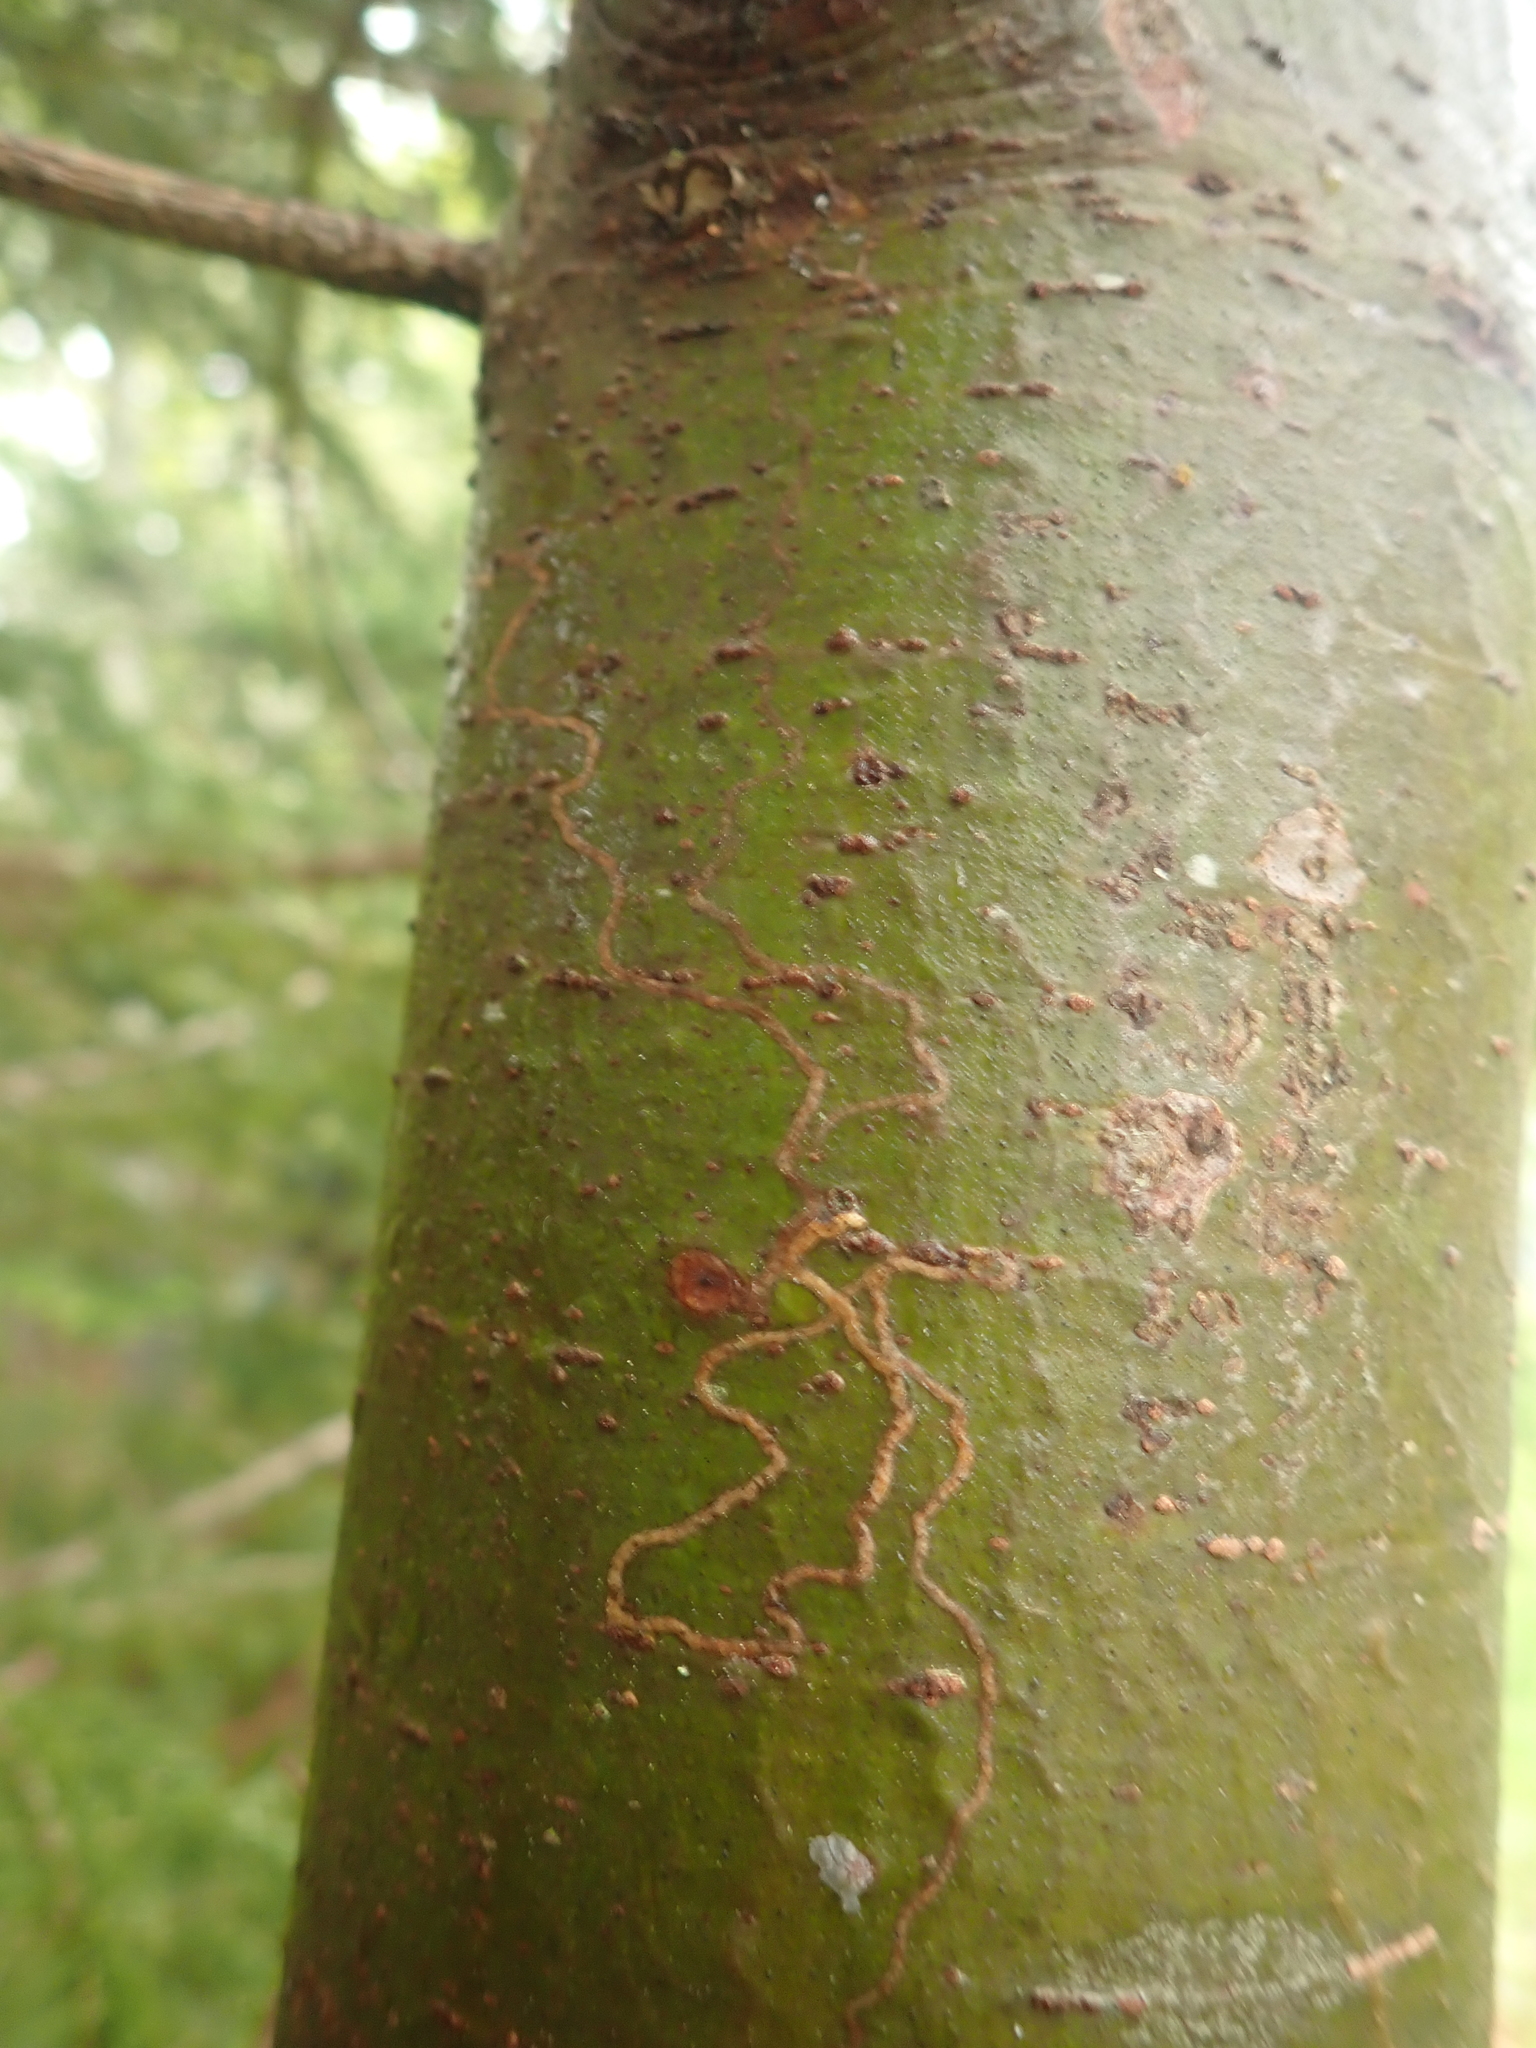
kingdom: Animalia
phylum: Arthropoda
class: Insecta
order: Lepidoptera
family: Gracillariidae
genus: Marmara
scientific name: Marmara fasciella
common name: White pine barkminer moth
